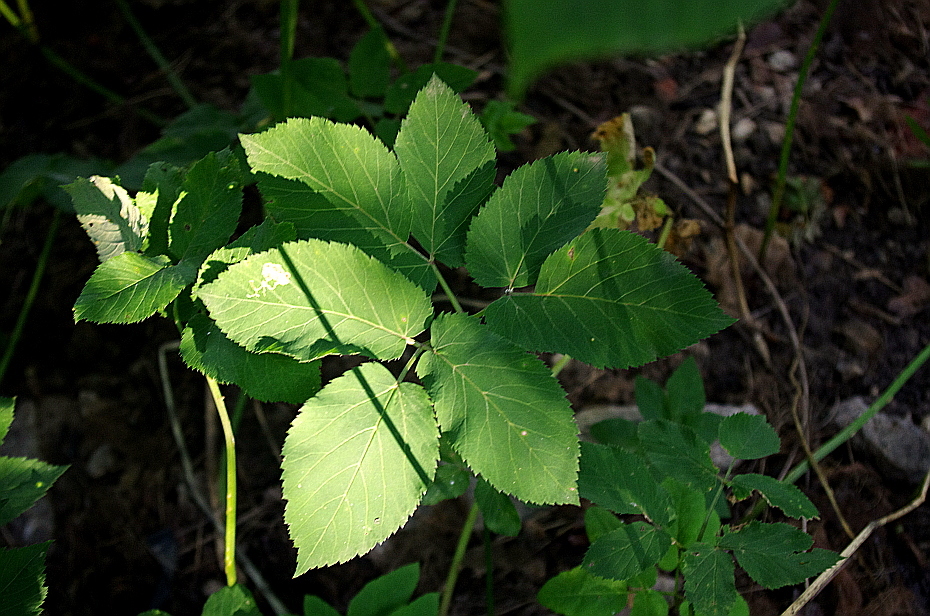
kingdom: Plantae
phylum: Tracheophyta
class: Magnoliopsida
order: Apiales
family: Apiaceae
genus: Aegopodium
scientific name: Aegopodium podagraria
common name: Ground-elder
